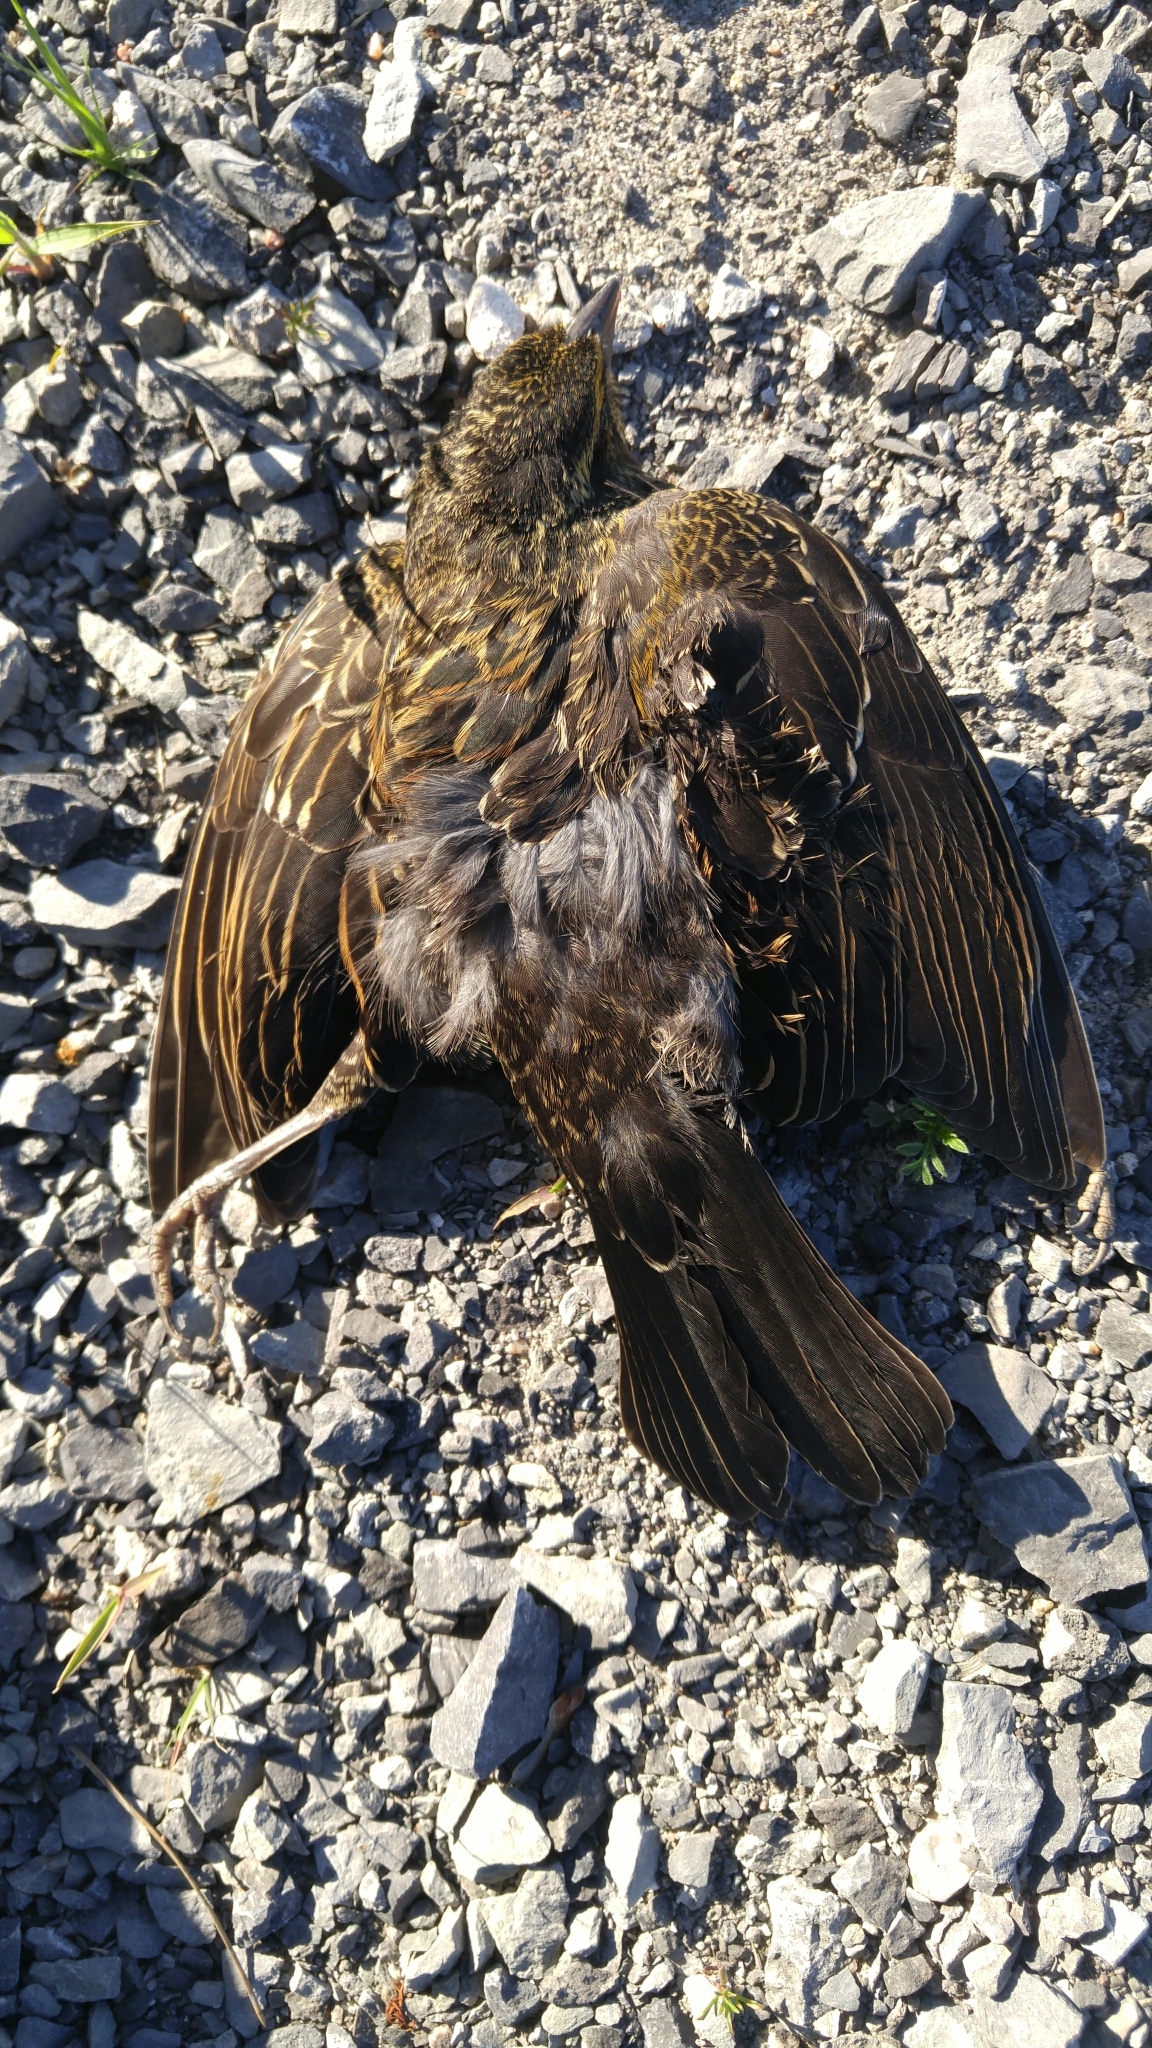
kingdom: Animalia
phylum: Chordata
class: Aves
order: Passeriformes
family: Icteridae
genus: Agelaius
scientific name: Agelaius phoeniceus
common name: Red-winged blackbird
